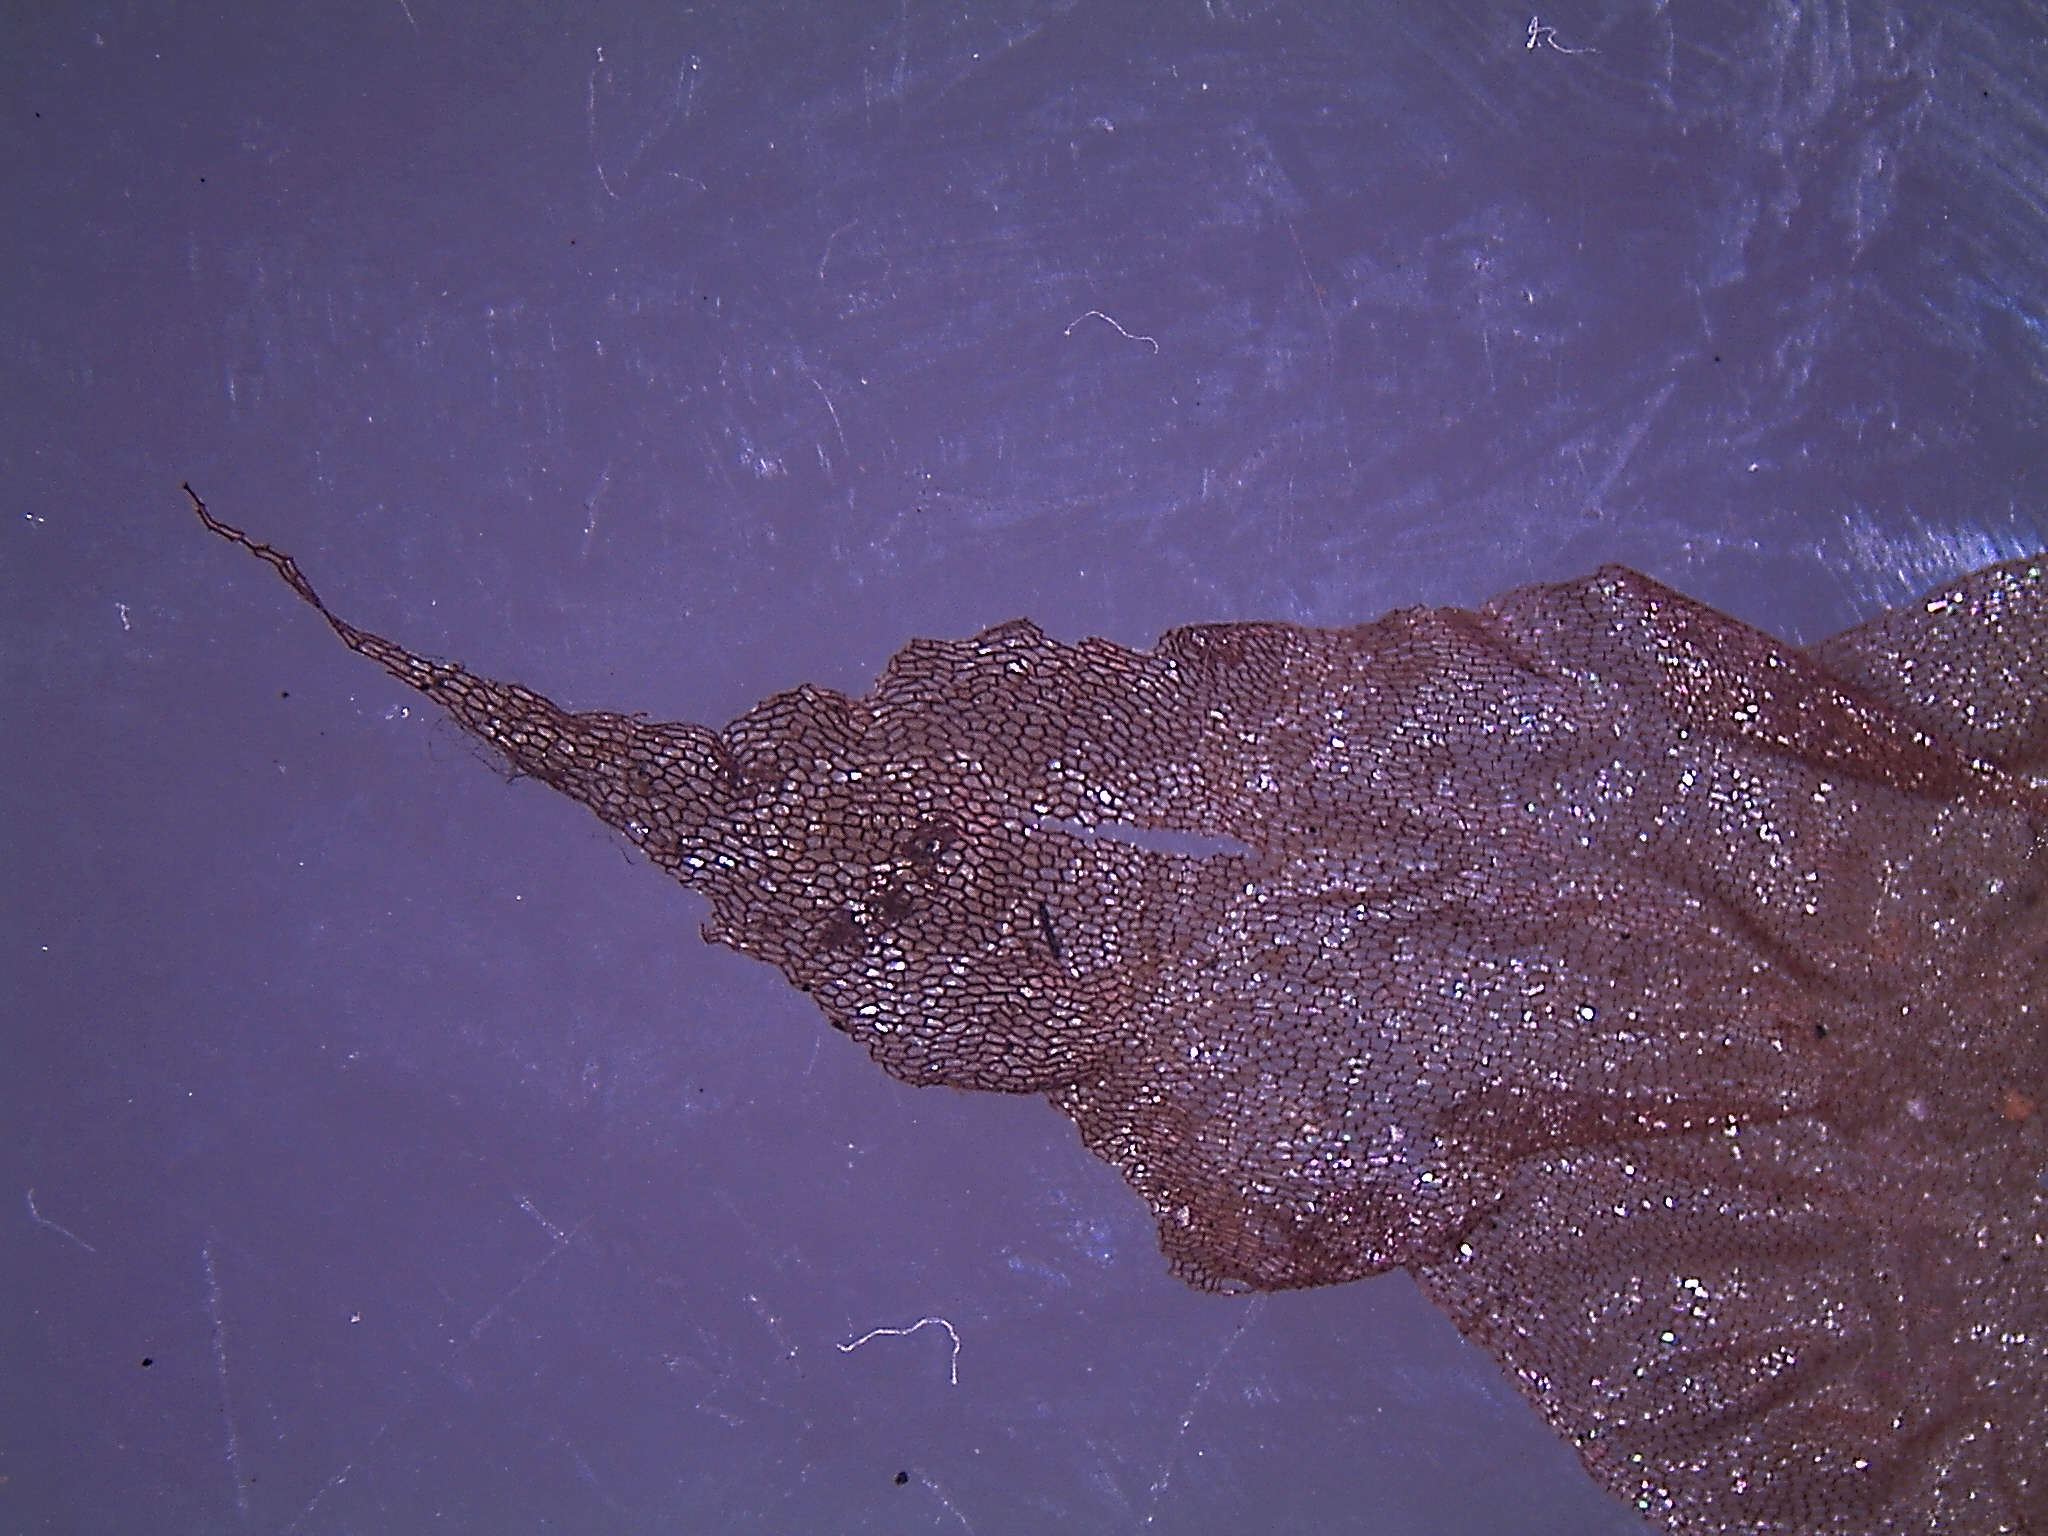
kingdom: Plantae
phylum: Tracheophyta
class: Polypodiopsida
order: Polypodiales
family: Aspleniaceae
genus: Asplenium
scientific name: Asplenium obtusatum
